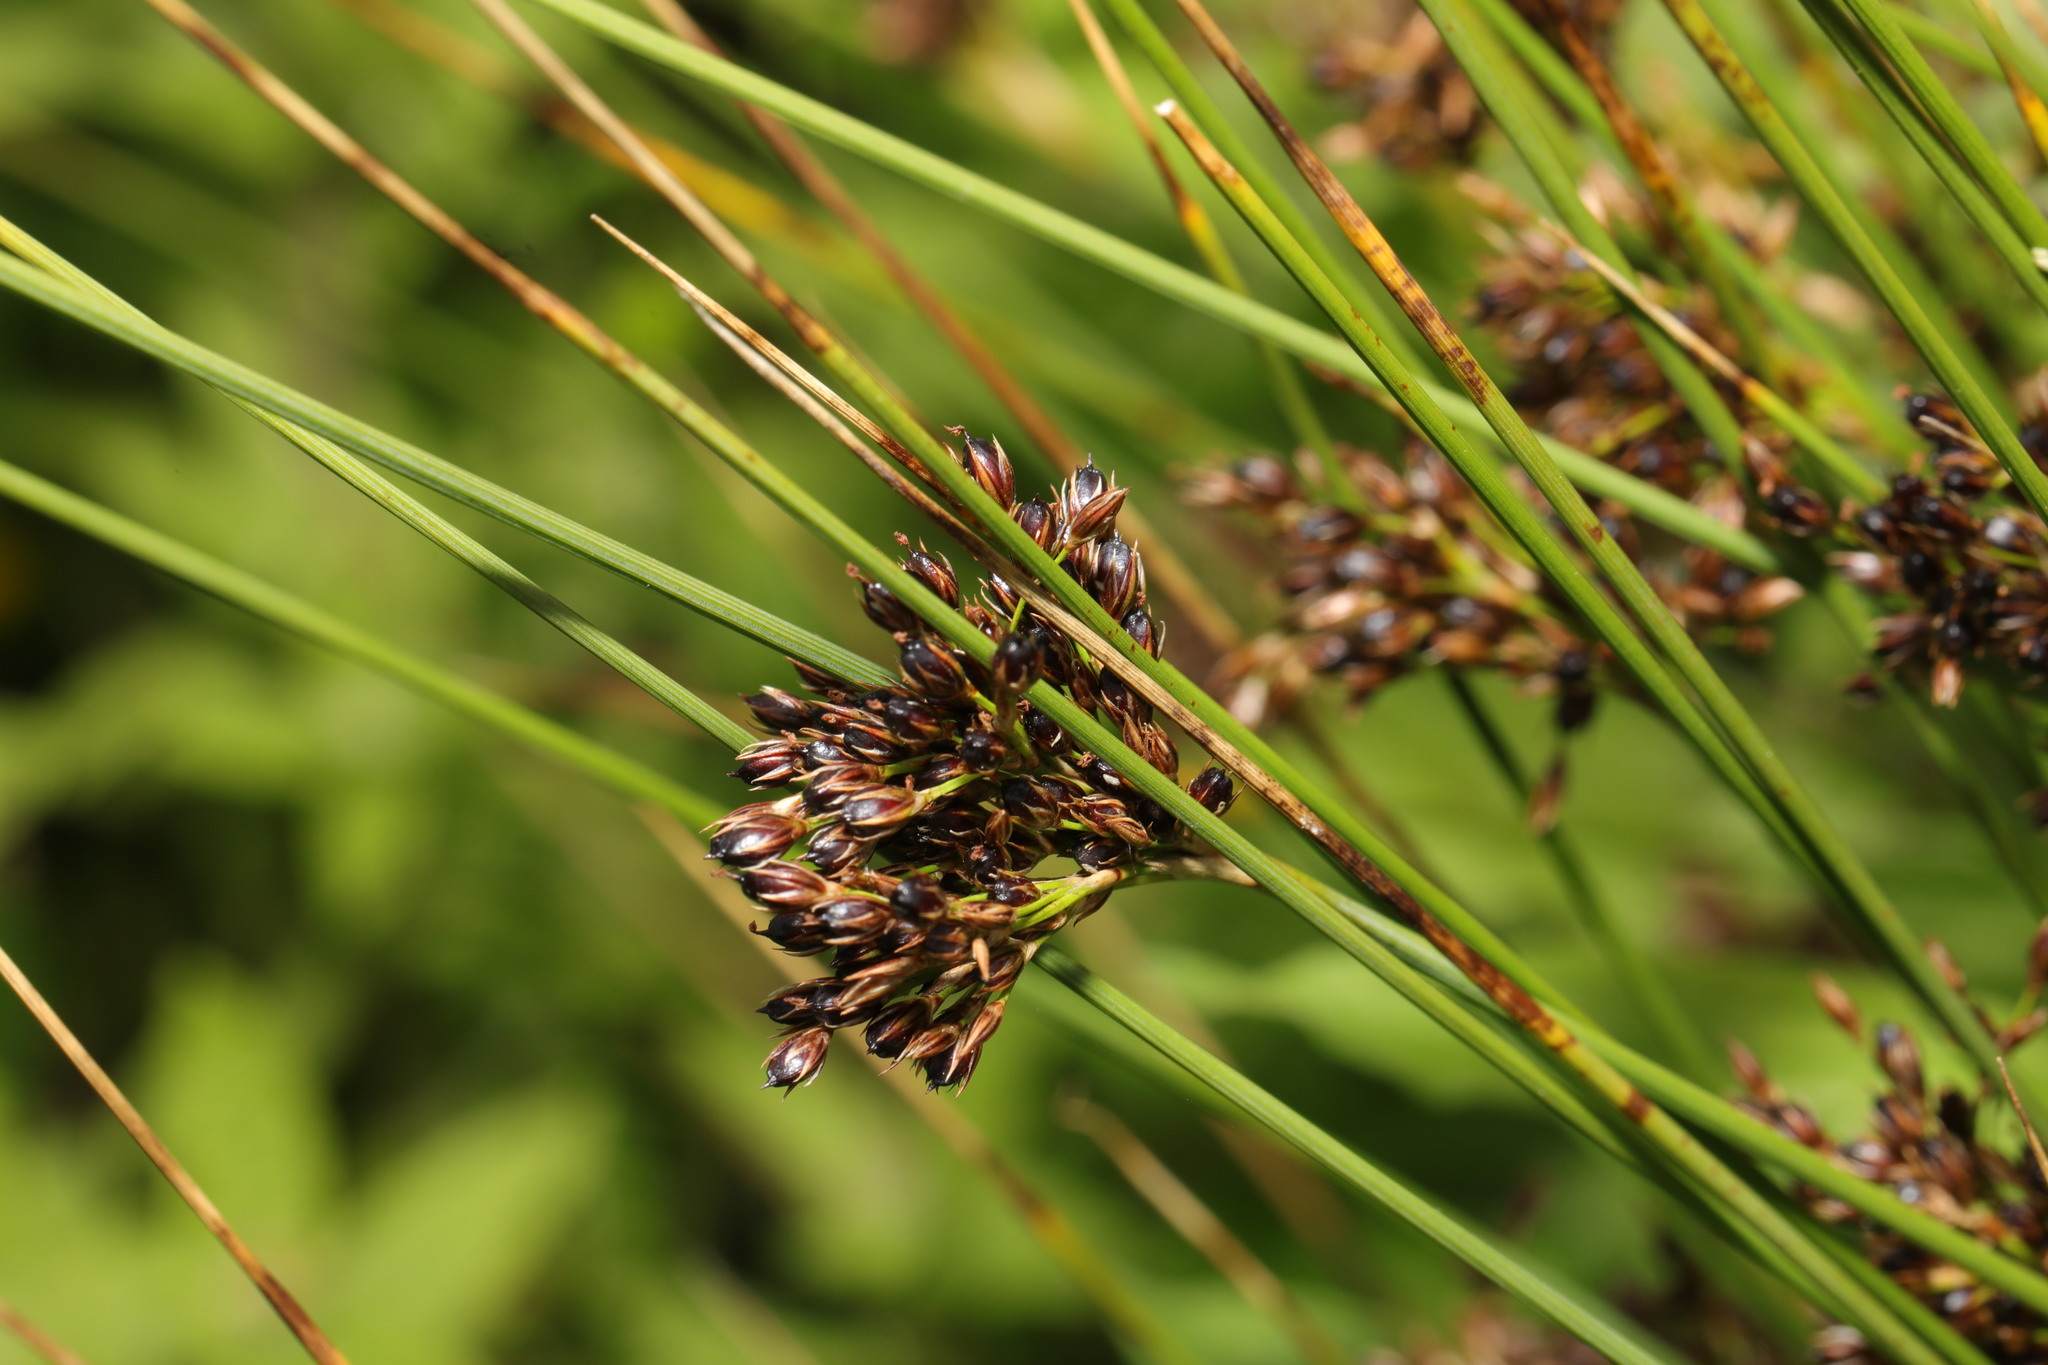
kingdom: Plantae
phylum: Tracheophyta
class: Liliopsida
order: Poales
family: Juncaceae
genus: Juncus
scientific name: Juncus inflexus
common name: Hard rush
